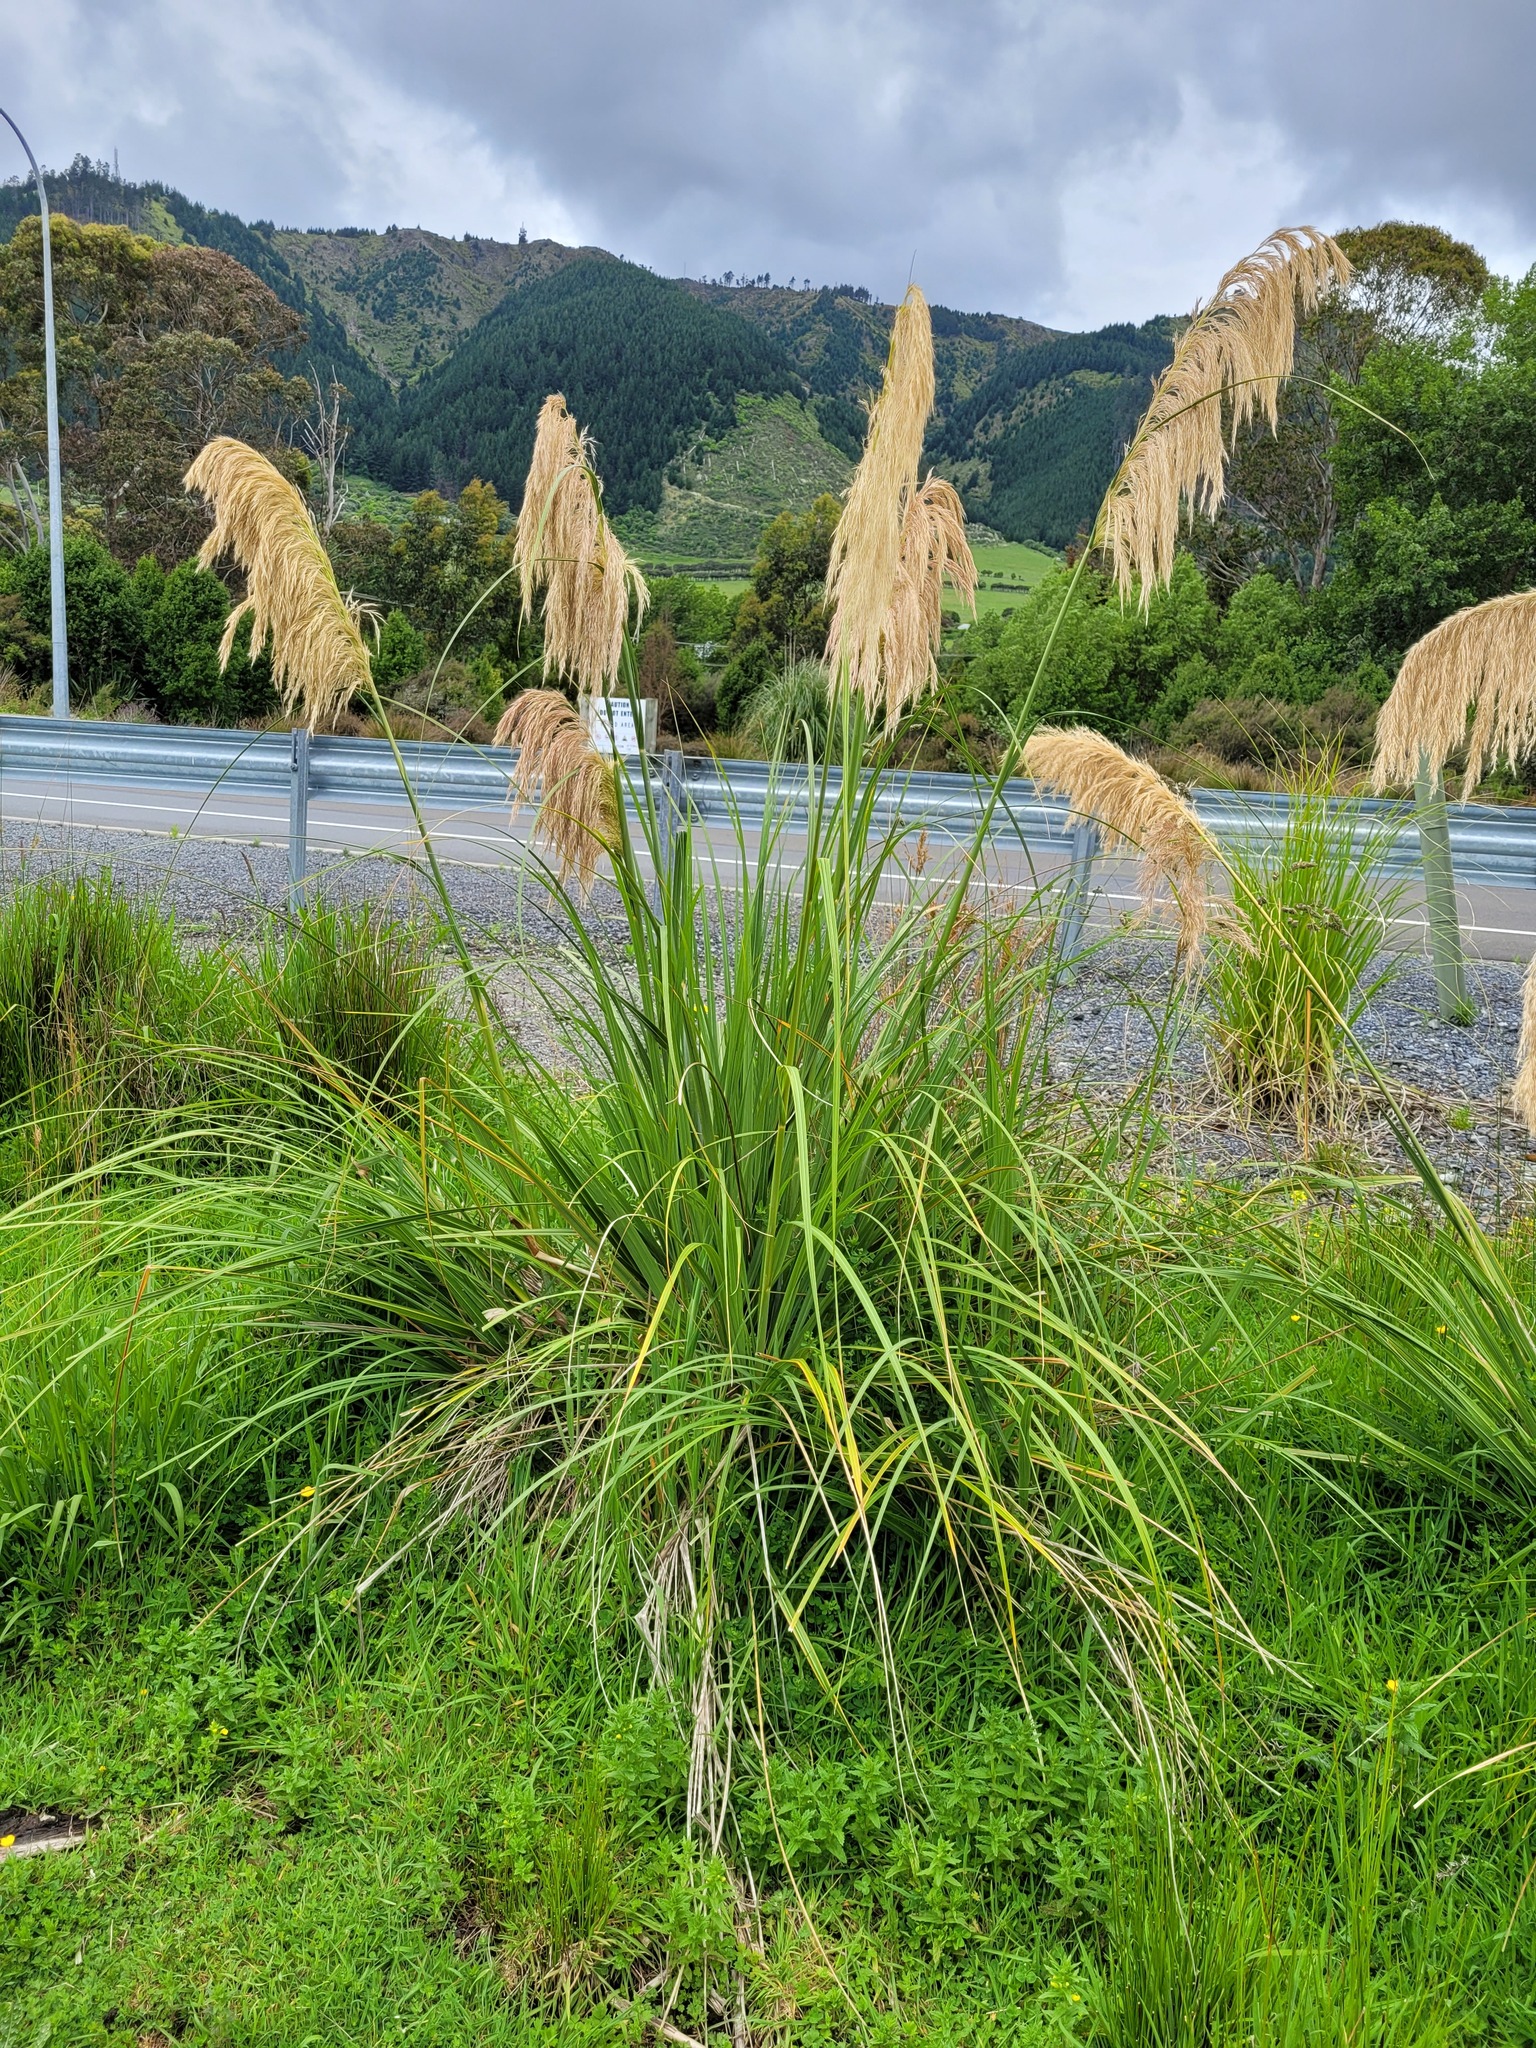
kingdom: Plantae
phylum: Tracheophyta
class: Liliopsida
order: Poales
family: Poaceae
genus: Austroderia
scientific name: Austroderia fulvida
